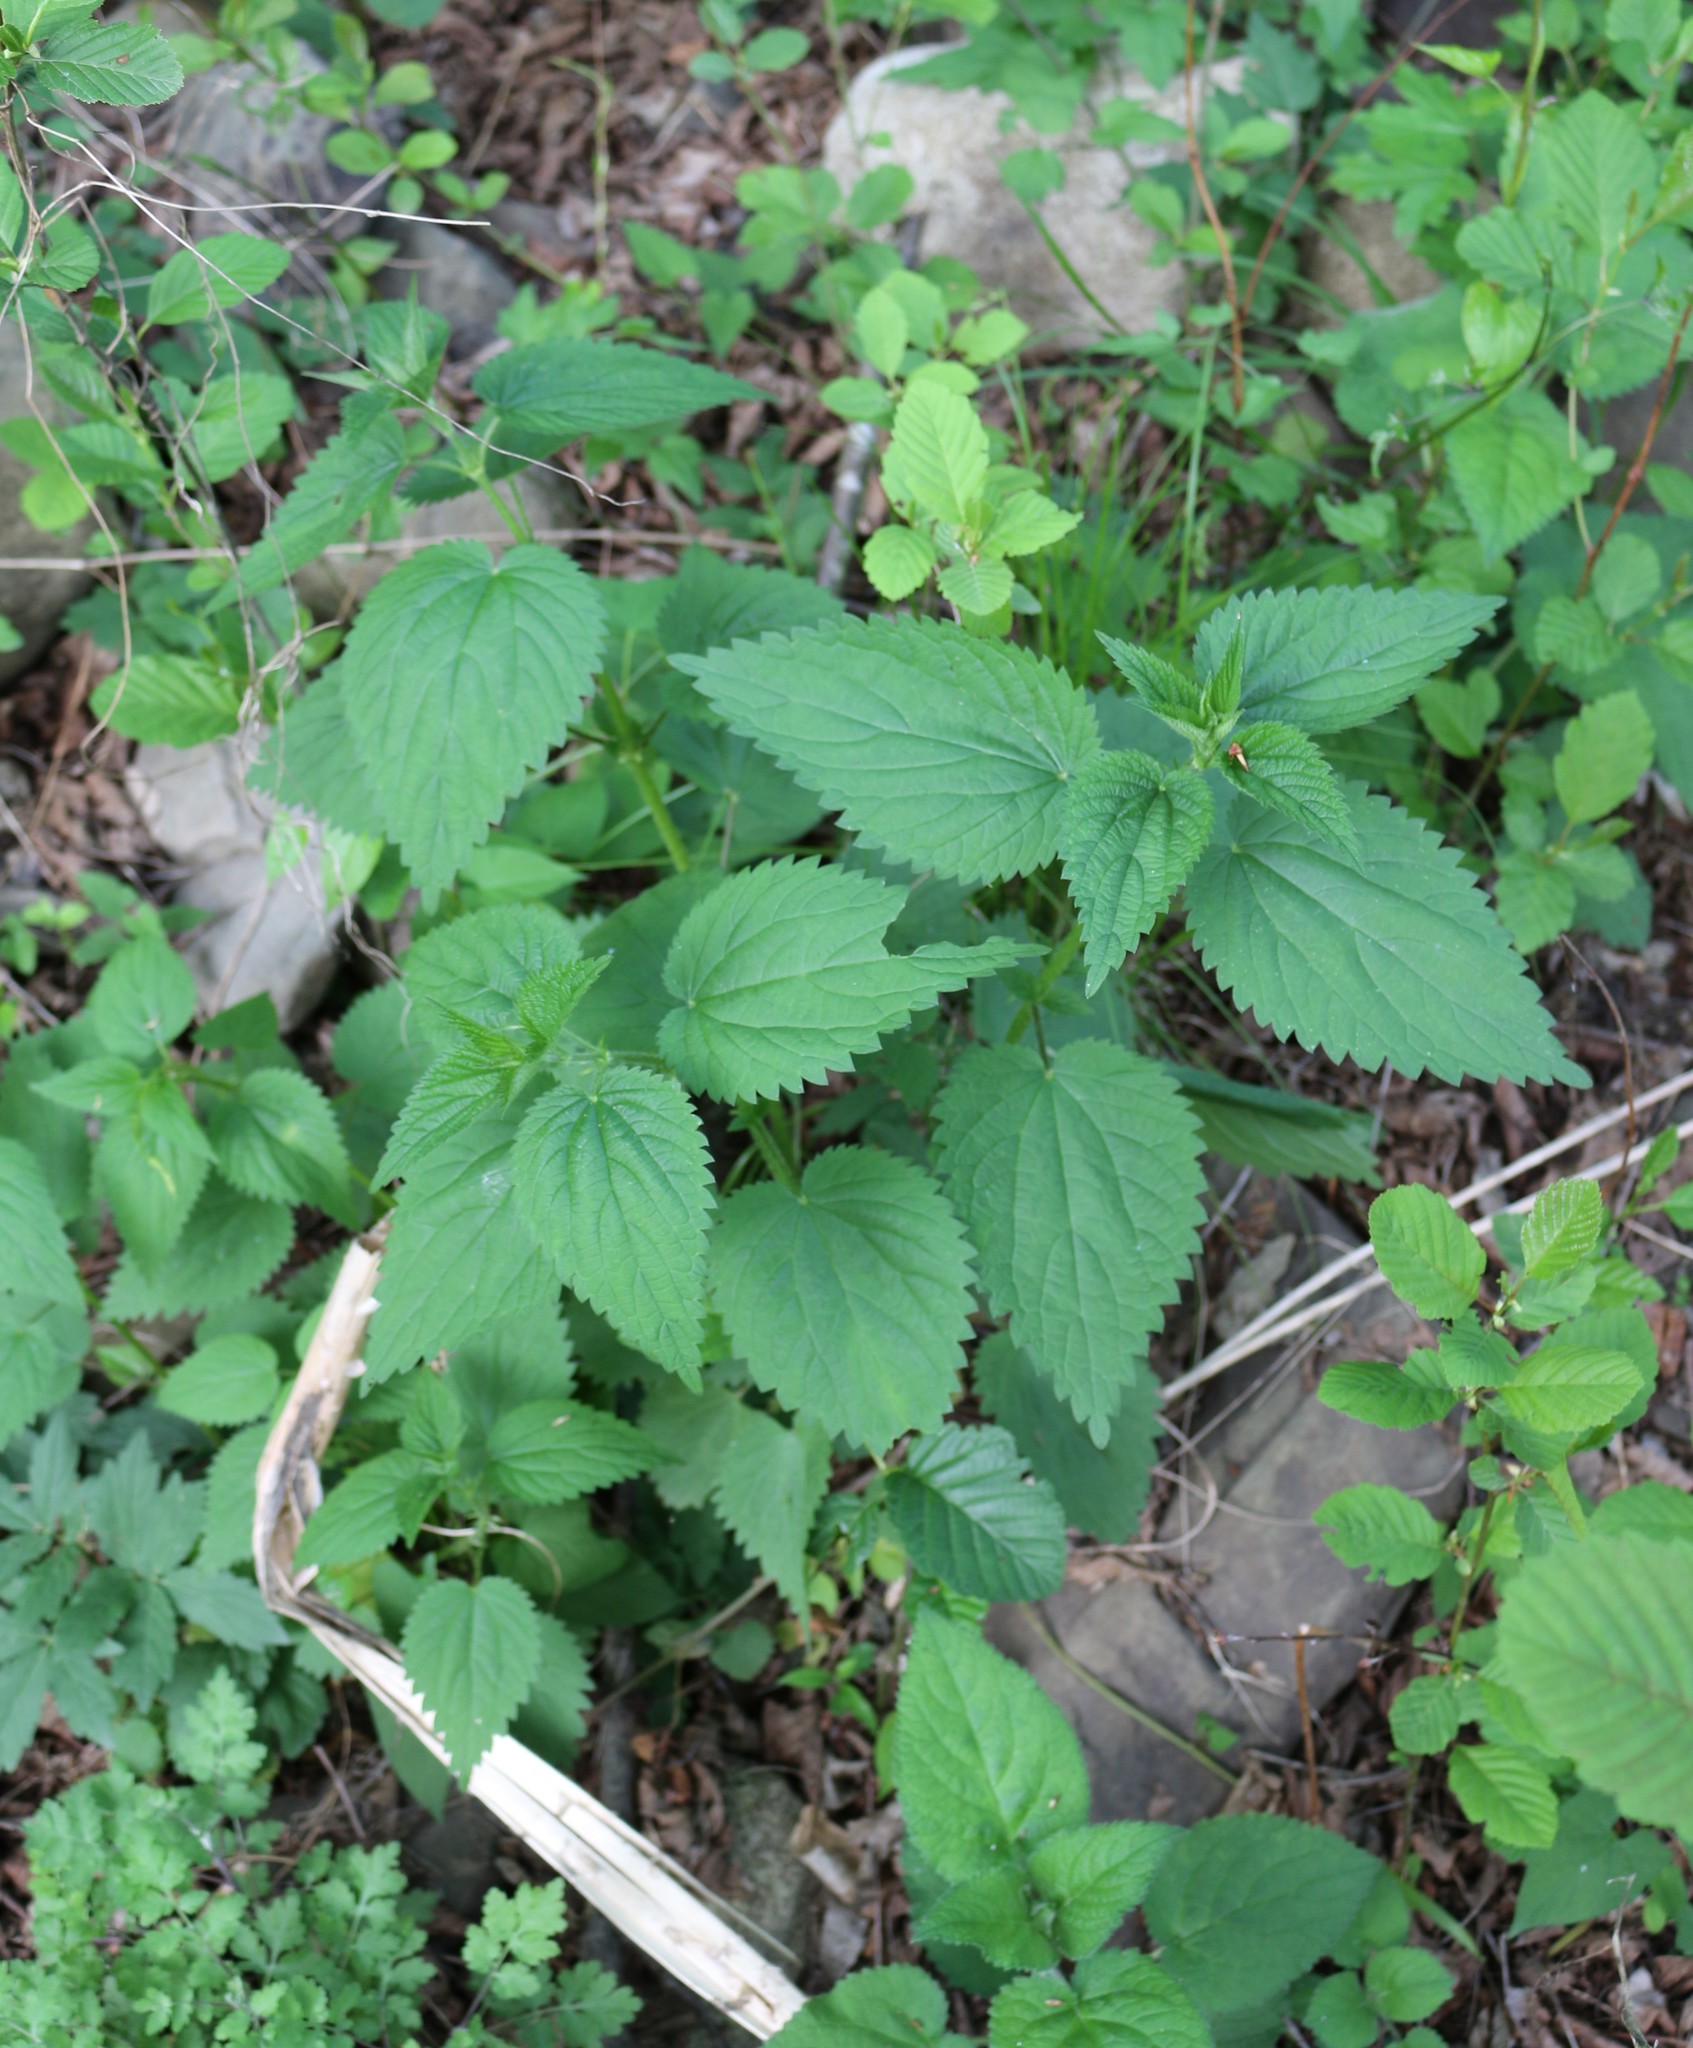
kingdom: Plantae
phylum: Tracheophyta
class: Magnoliopsida
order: Rosales
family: Urticaceae
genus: Urtica
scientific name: Urtica dioica
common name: Common nettle
